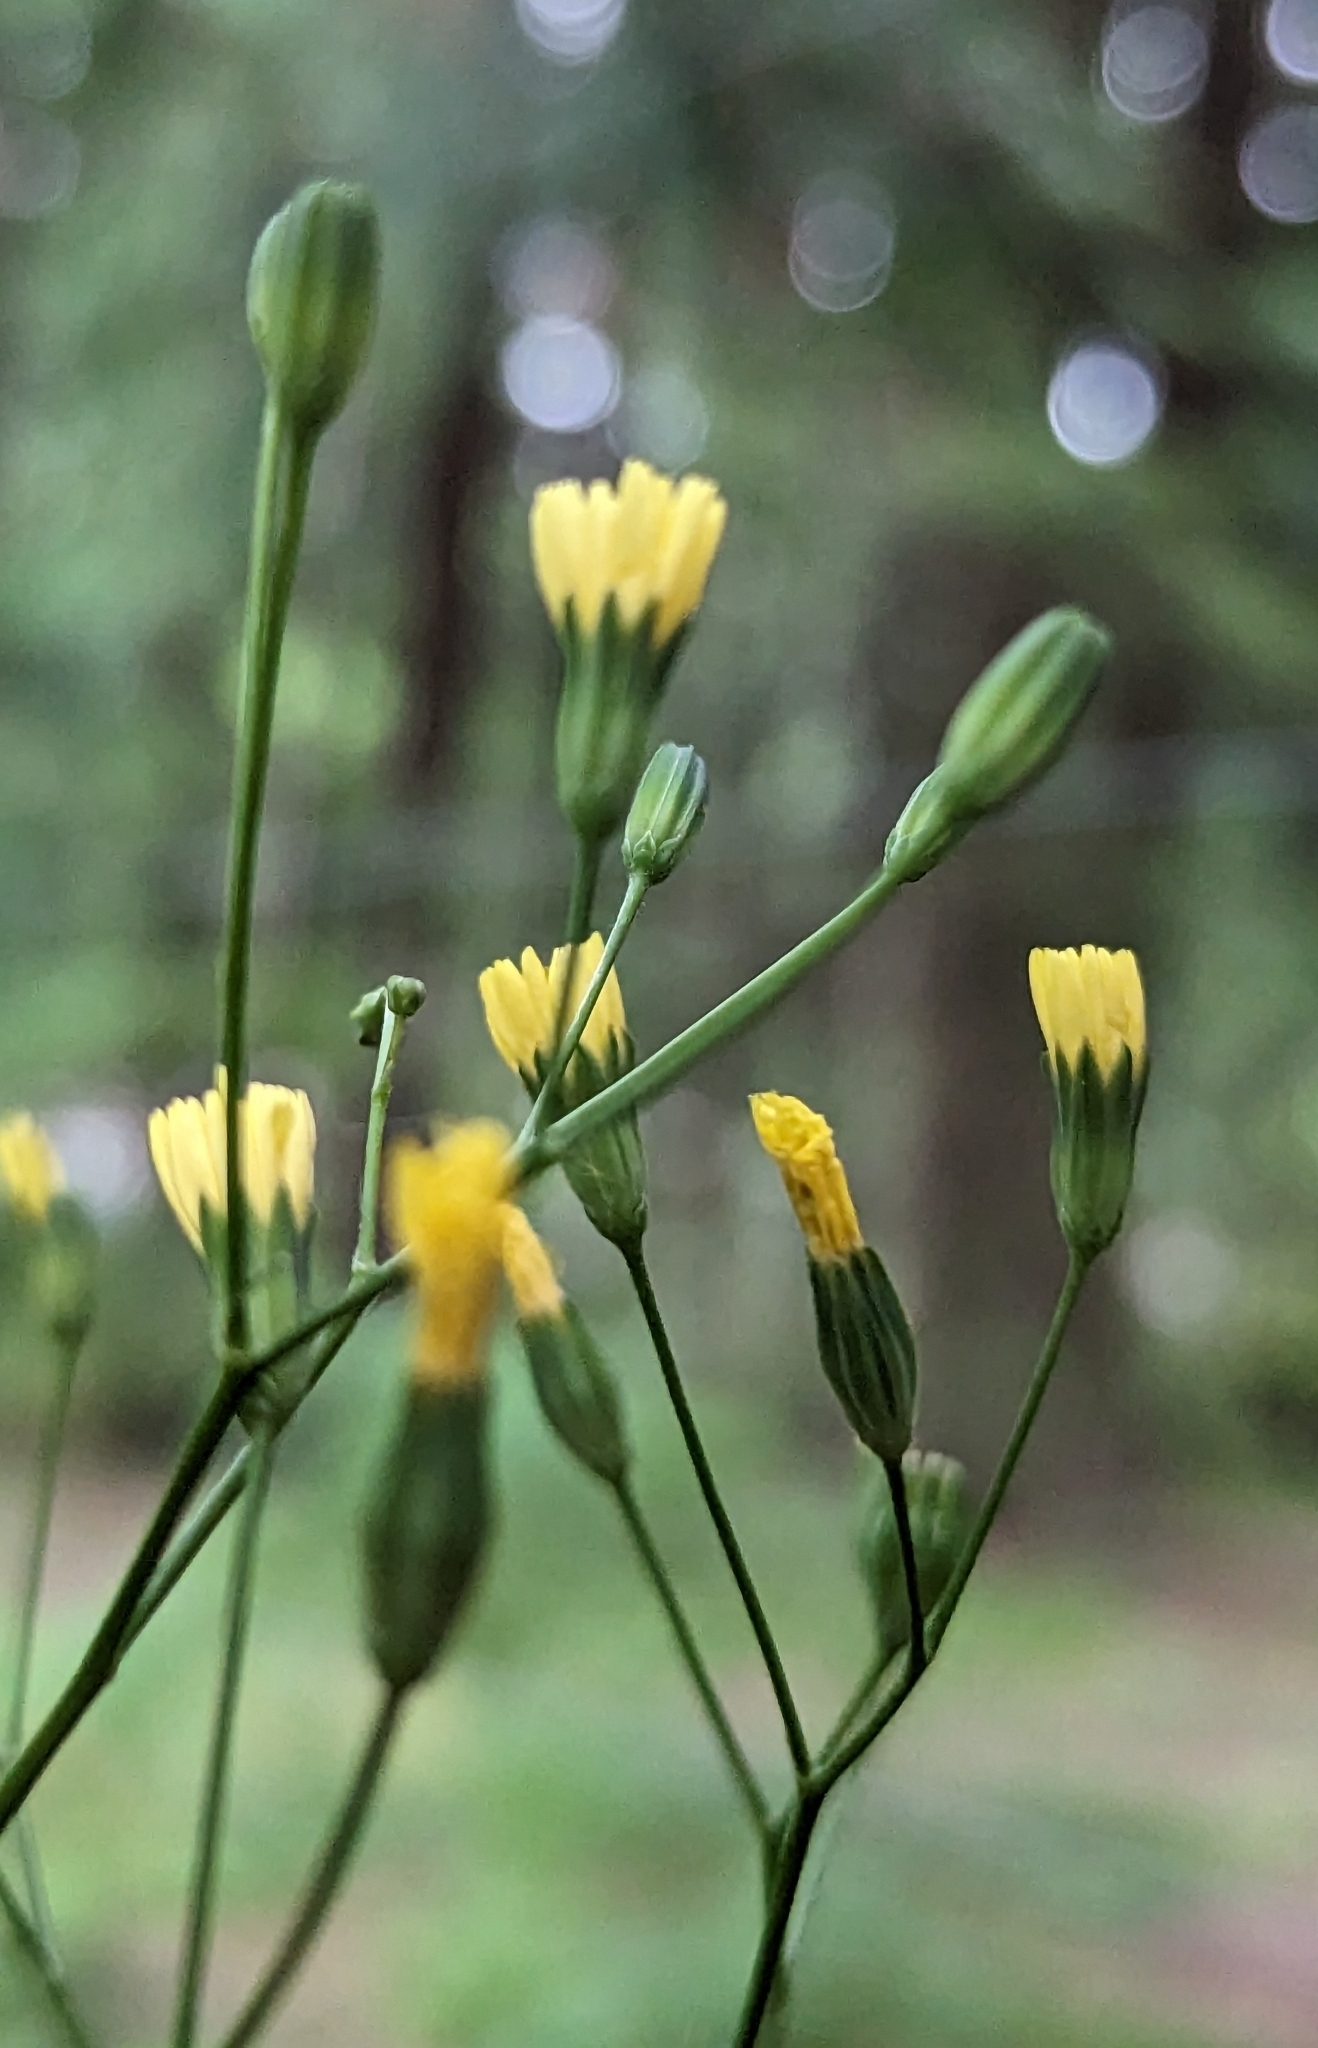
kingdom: Plantae
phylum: Tracheophyta
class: Magnoliopsida
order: Asterales
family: Asteraceae
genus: Lapsana
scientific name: Lapsana communis
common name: Nipplewort
